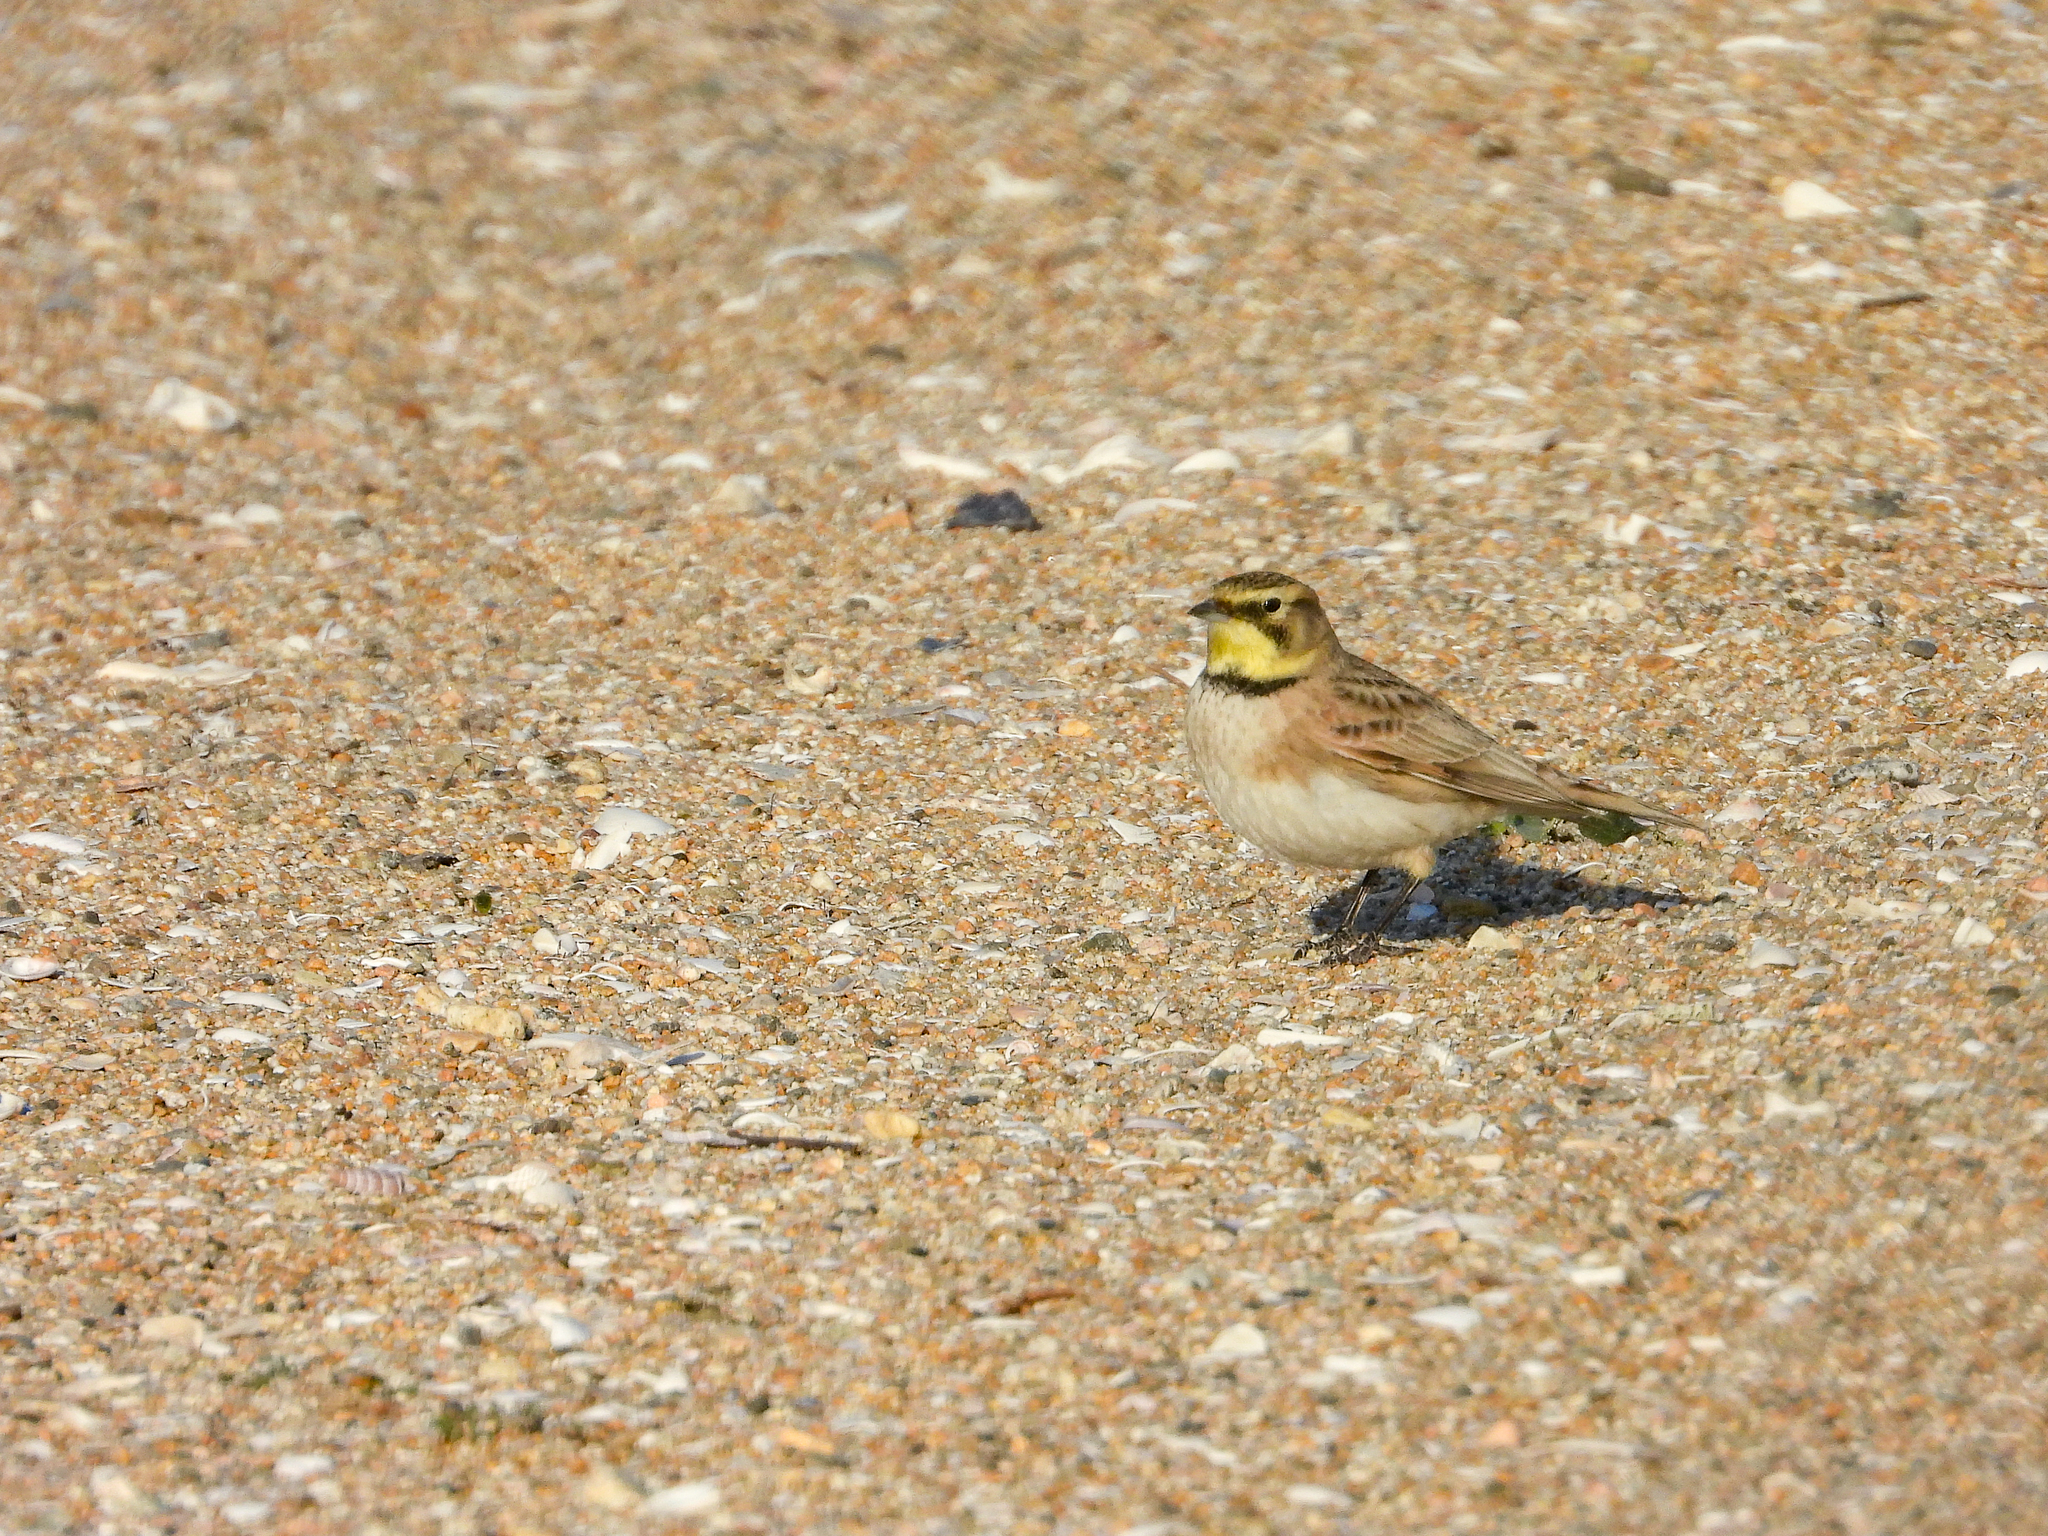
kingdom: Animalia
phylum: Chordata
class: Aves
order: Passeriformes
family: Alaudidae
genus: Eremophila
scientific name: Eremophila alpestris
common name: Horned lark
